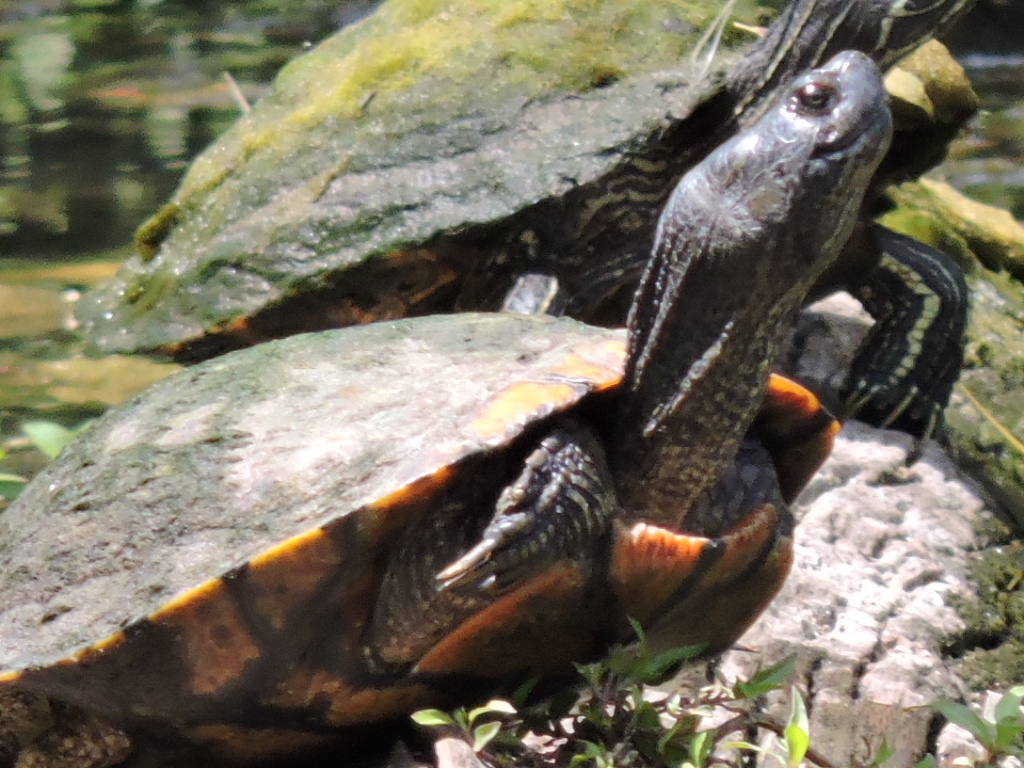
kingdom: Animalia
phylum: Chordata
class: Testudines
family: Emydidae
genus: Trachemys
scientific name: Trachemys scripta
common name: Slider
